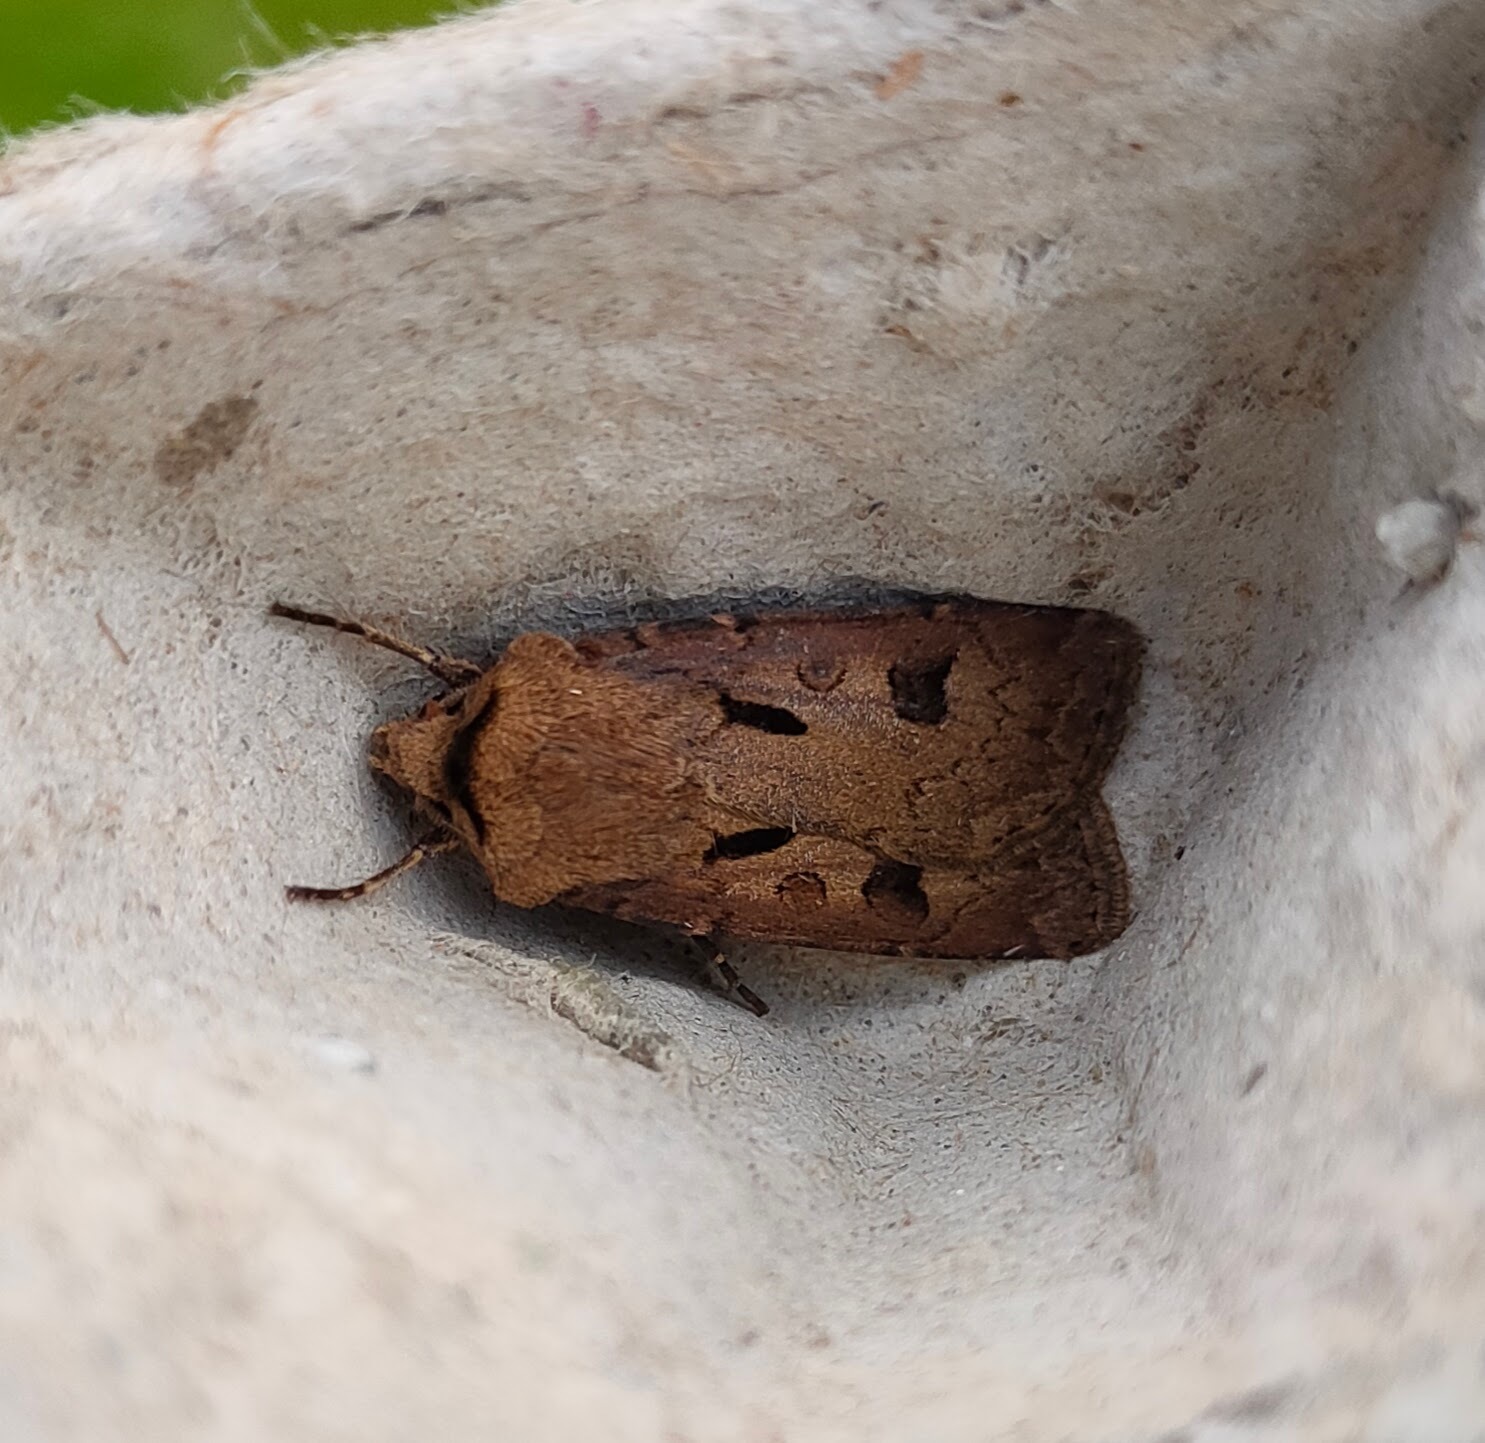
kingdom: Animalia
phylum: Arthropoda
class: Insecta
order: Lepidoptera
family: Noctuidae
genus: Agrotis
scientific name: Agrotis exclamationis
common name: Heart and dart
